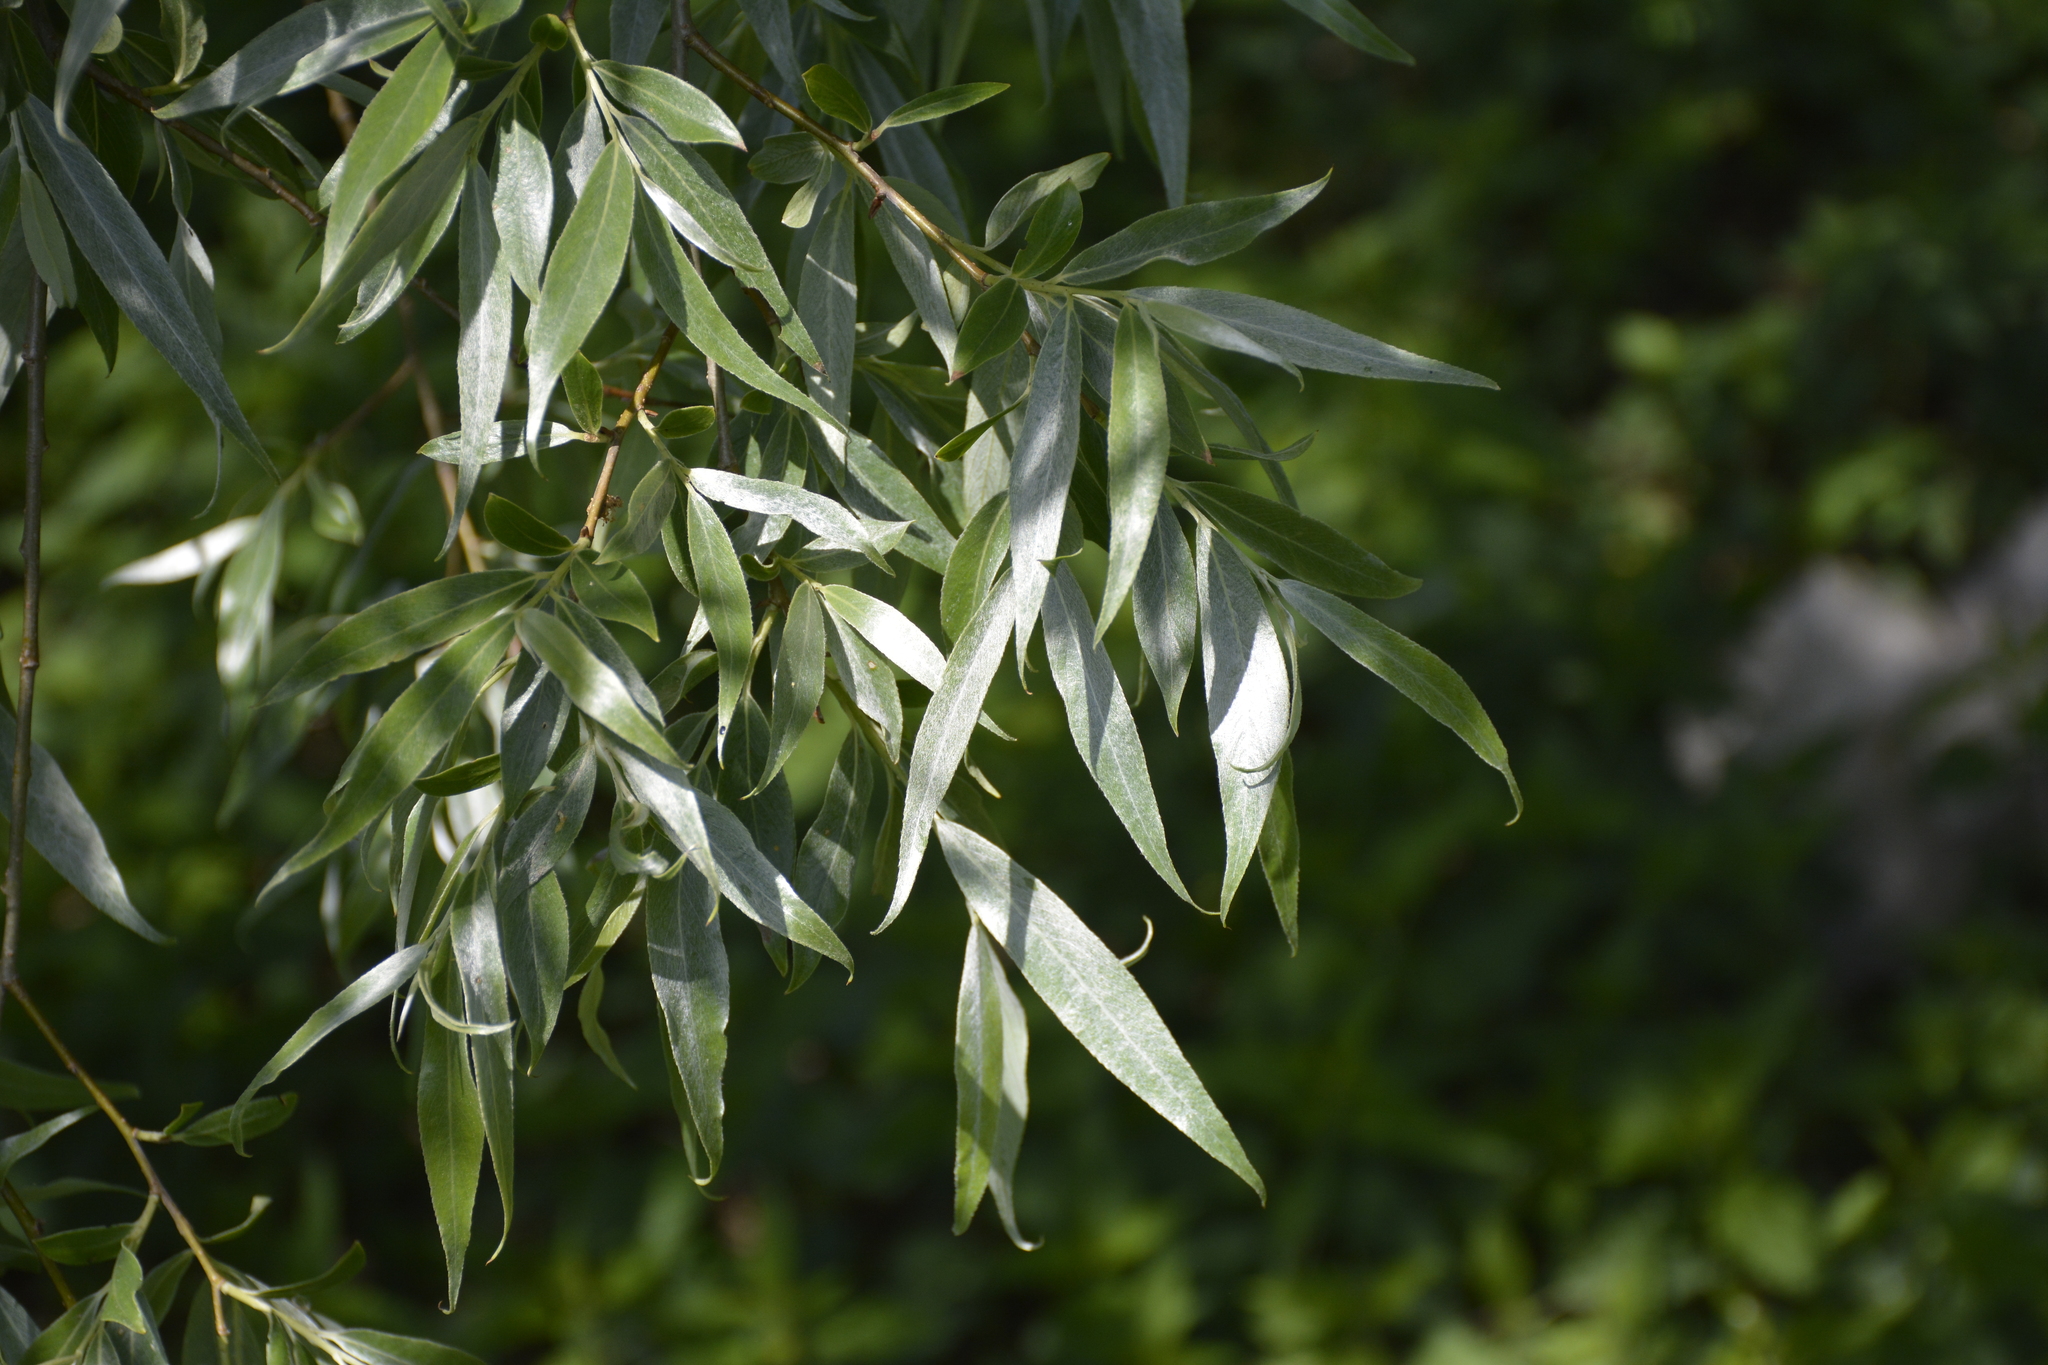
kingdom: Plantae
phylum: Tracheophyta
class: Magnoliopsida
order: Malpighiales
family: Salicaceae
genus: Salix
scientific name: Salix alba
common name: White willow
